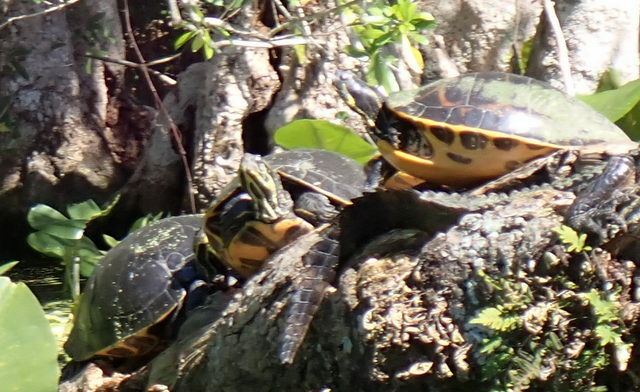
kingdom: Animalia
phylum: Chordata
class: Testudines
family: Emydidae
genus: Pseudemys
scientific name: Pseudemys concinna
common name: Eastern river cooter
